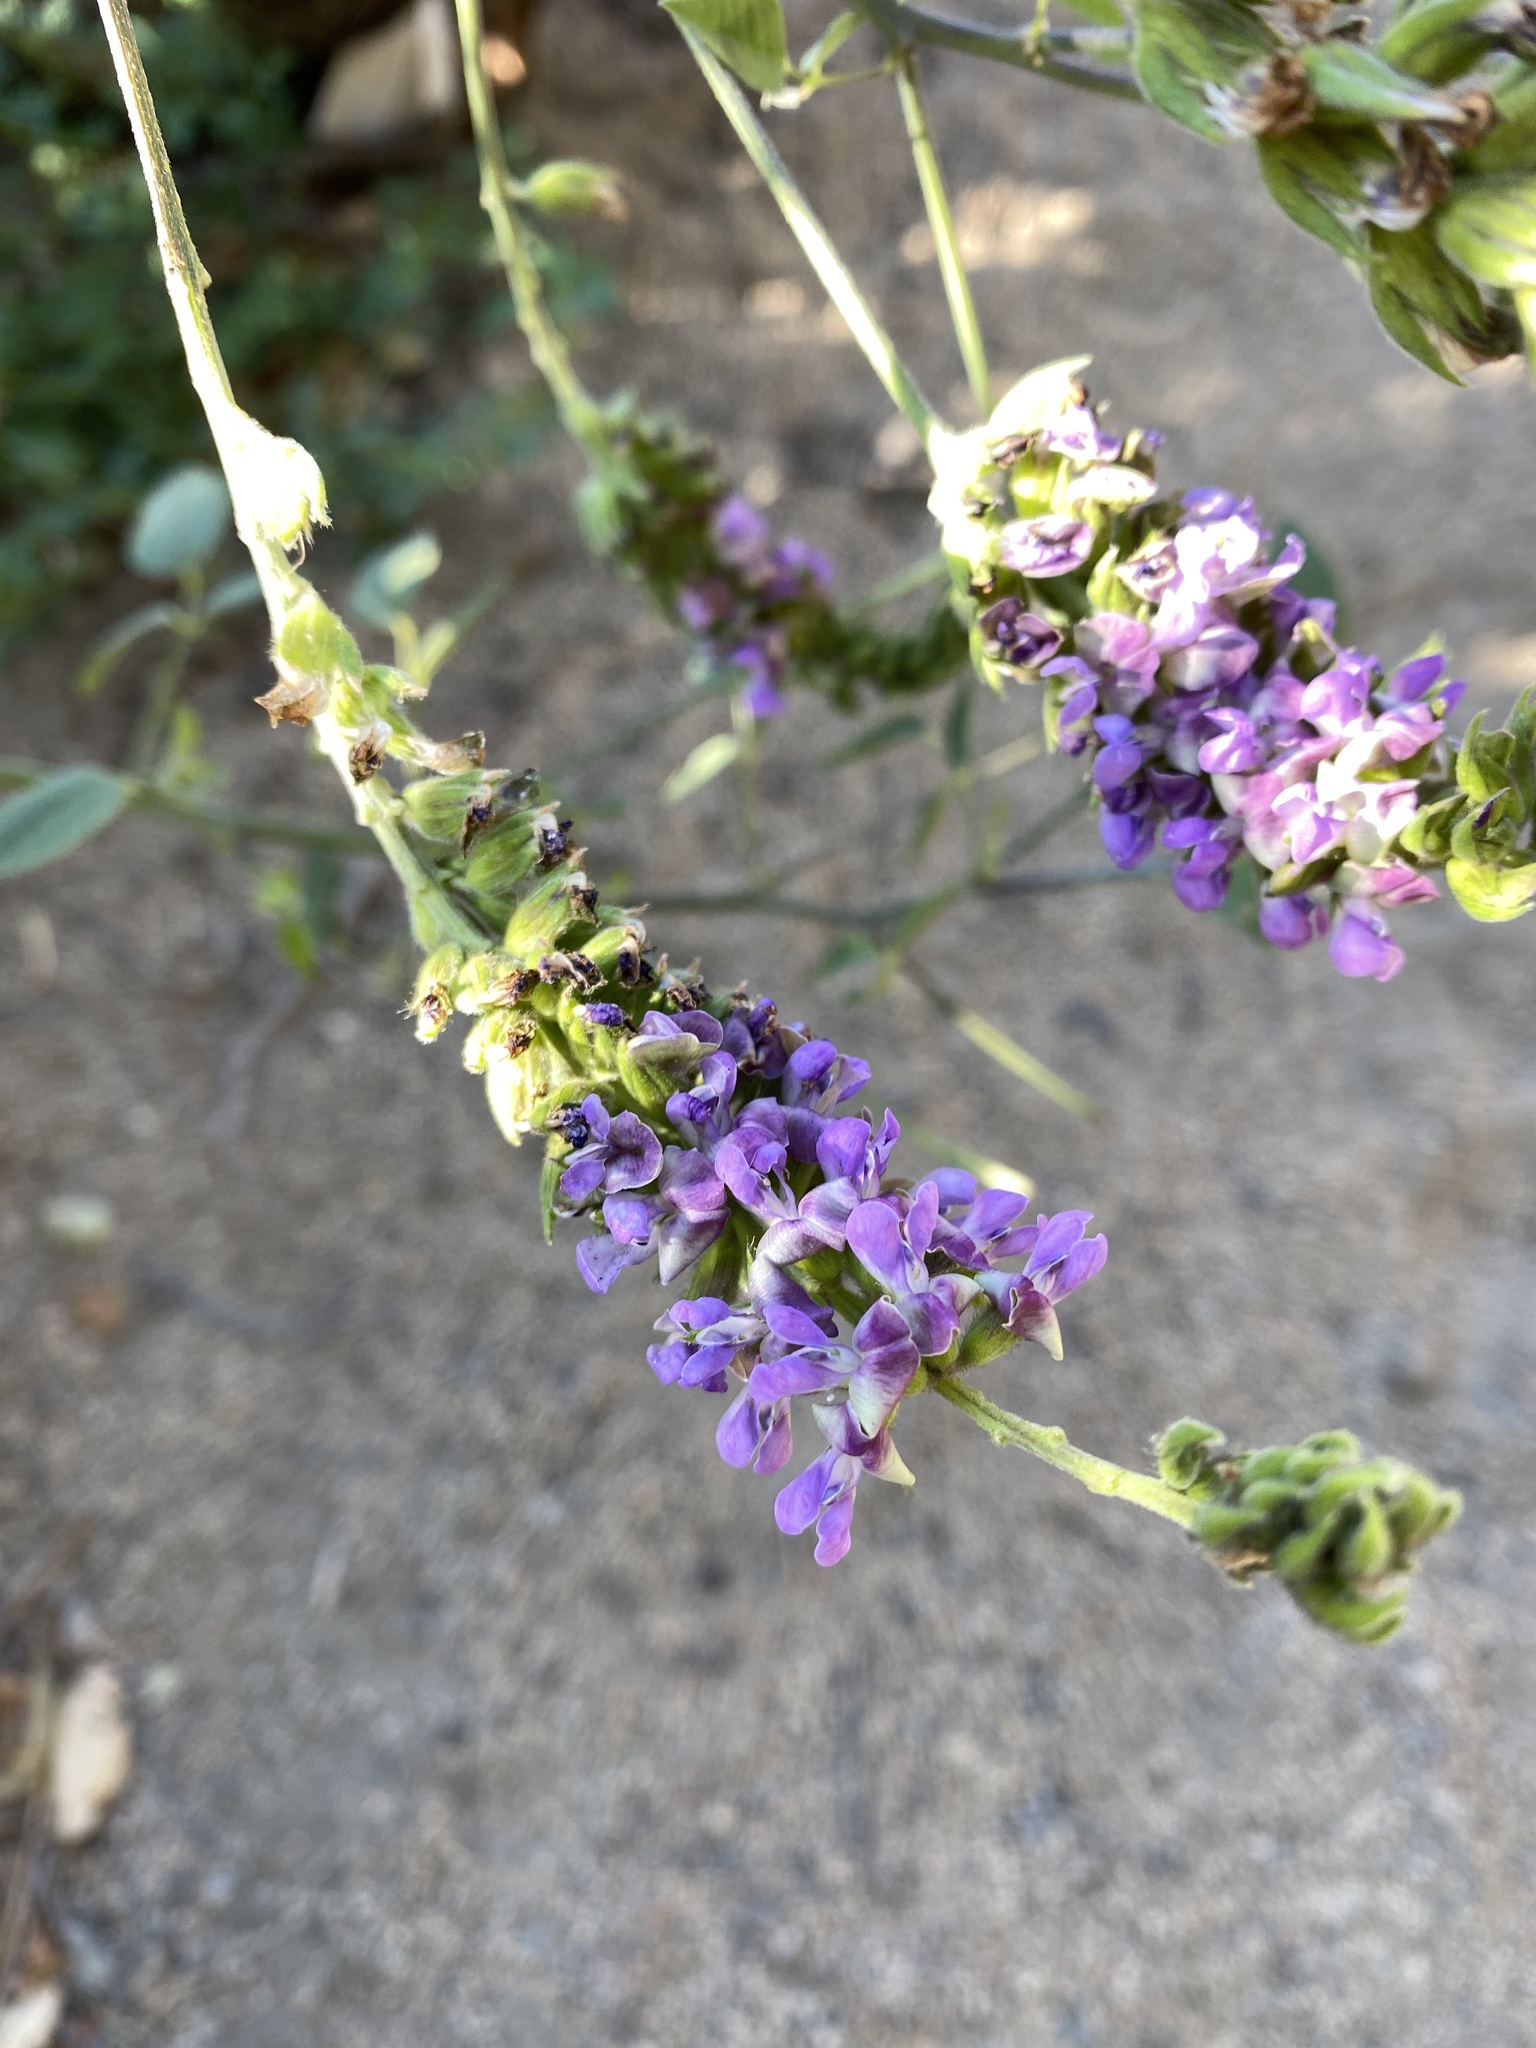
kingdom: Plantae
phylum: Tracheophyta
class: Magnoliopsida
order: Fabales
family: Fabaceae
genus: Hoita
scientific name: Hoita macrostachya
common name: Leatherroot
